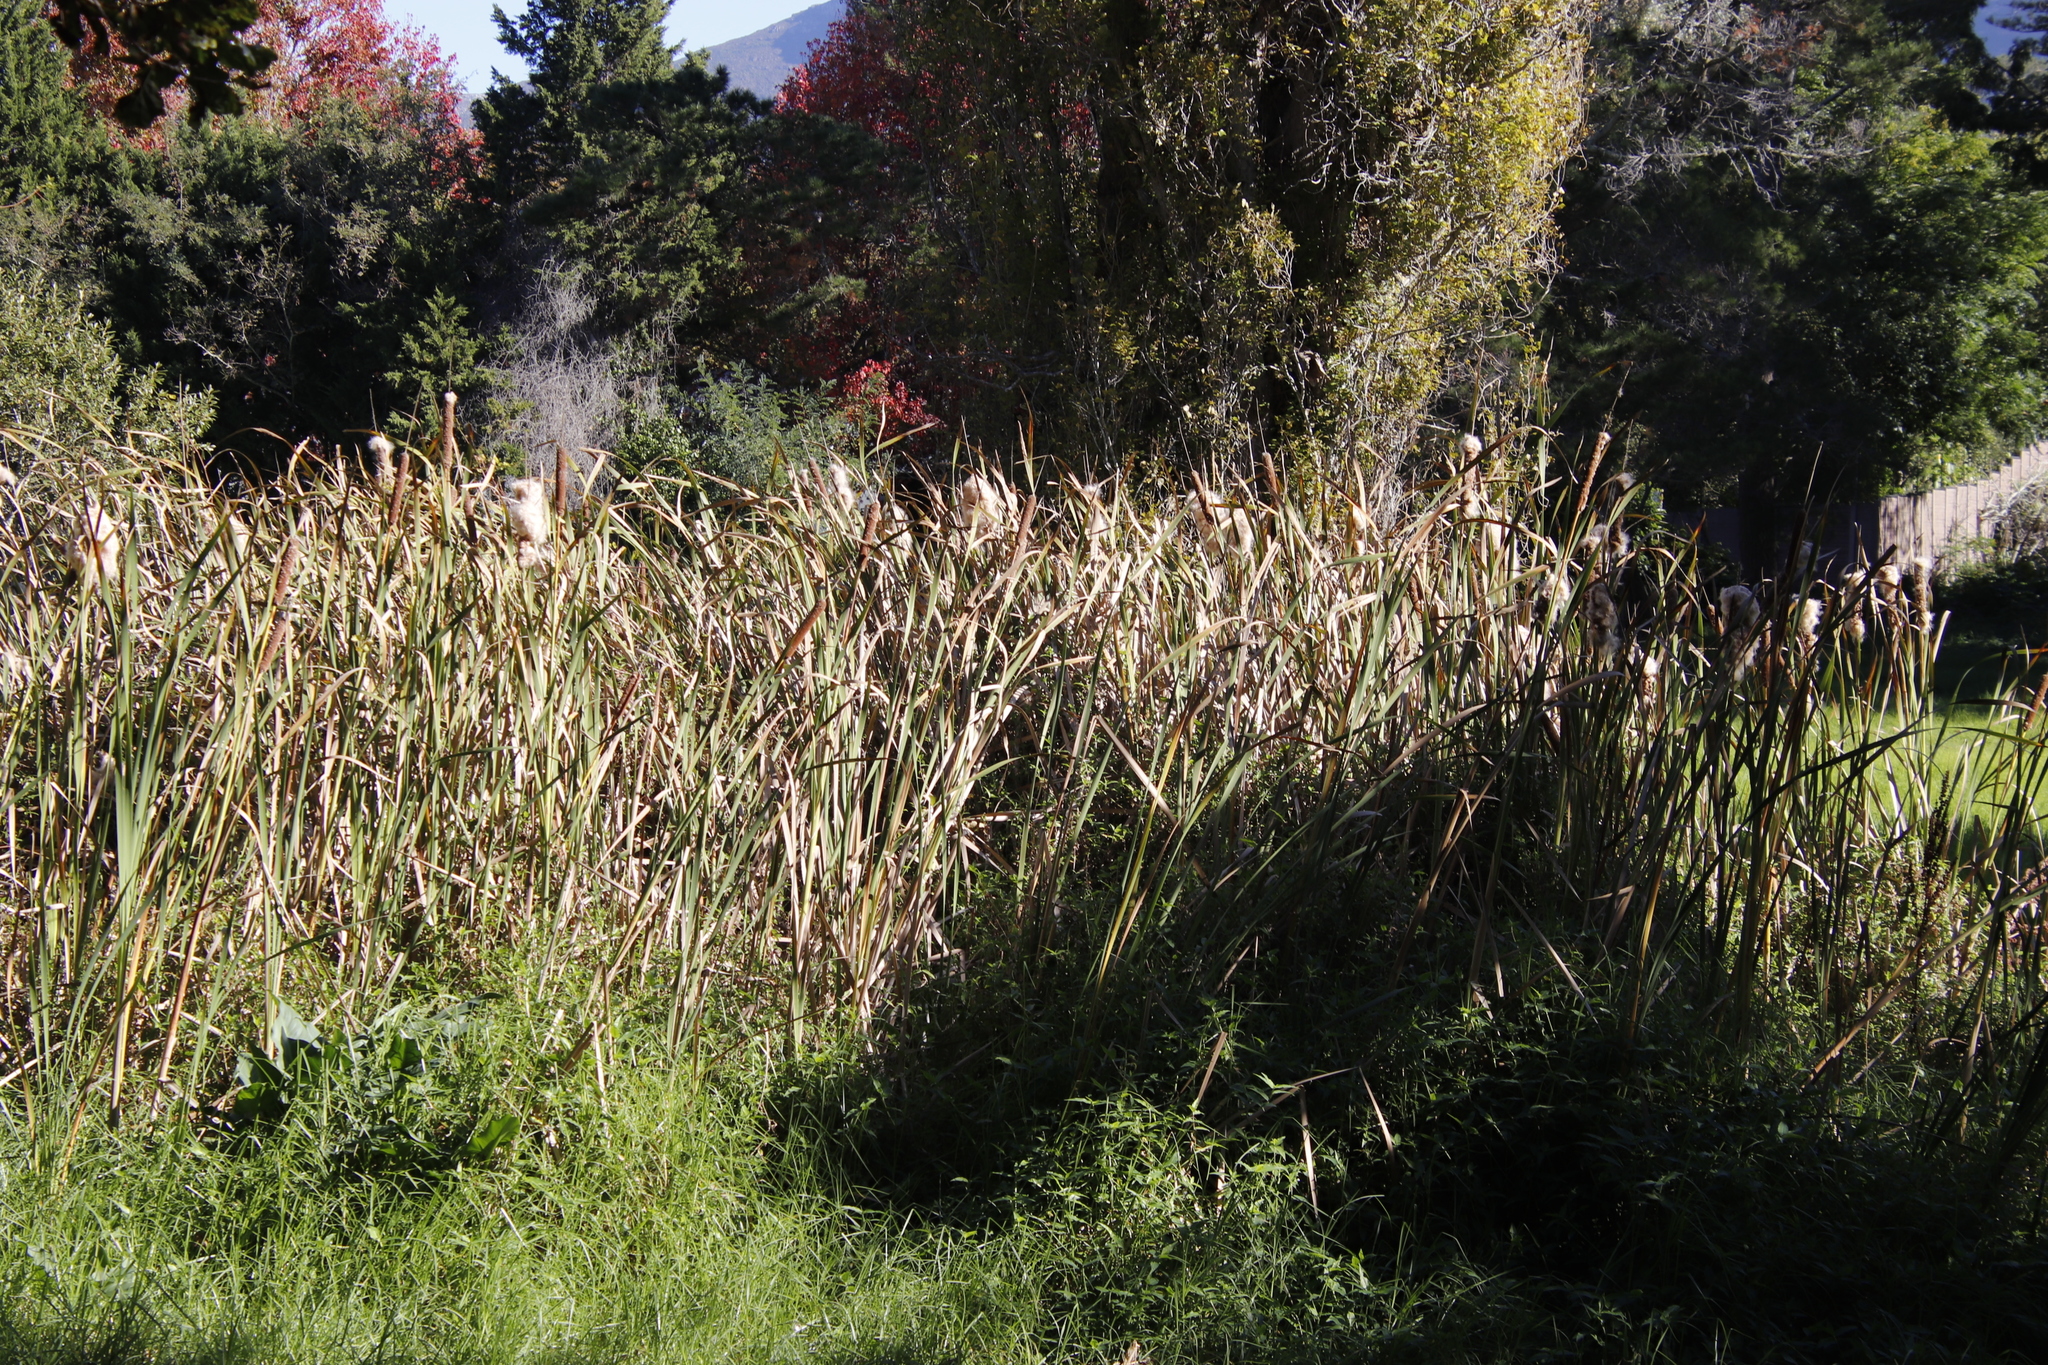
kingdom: Plantae
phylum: Tracheophyta
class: Liliopsida
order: Poales
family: Typhaceae
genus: Typha
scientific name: Typha capensis
